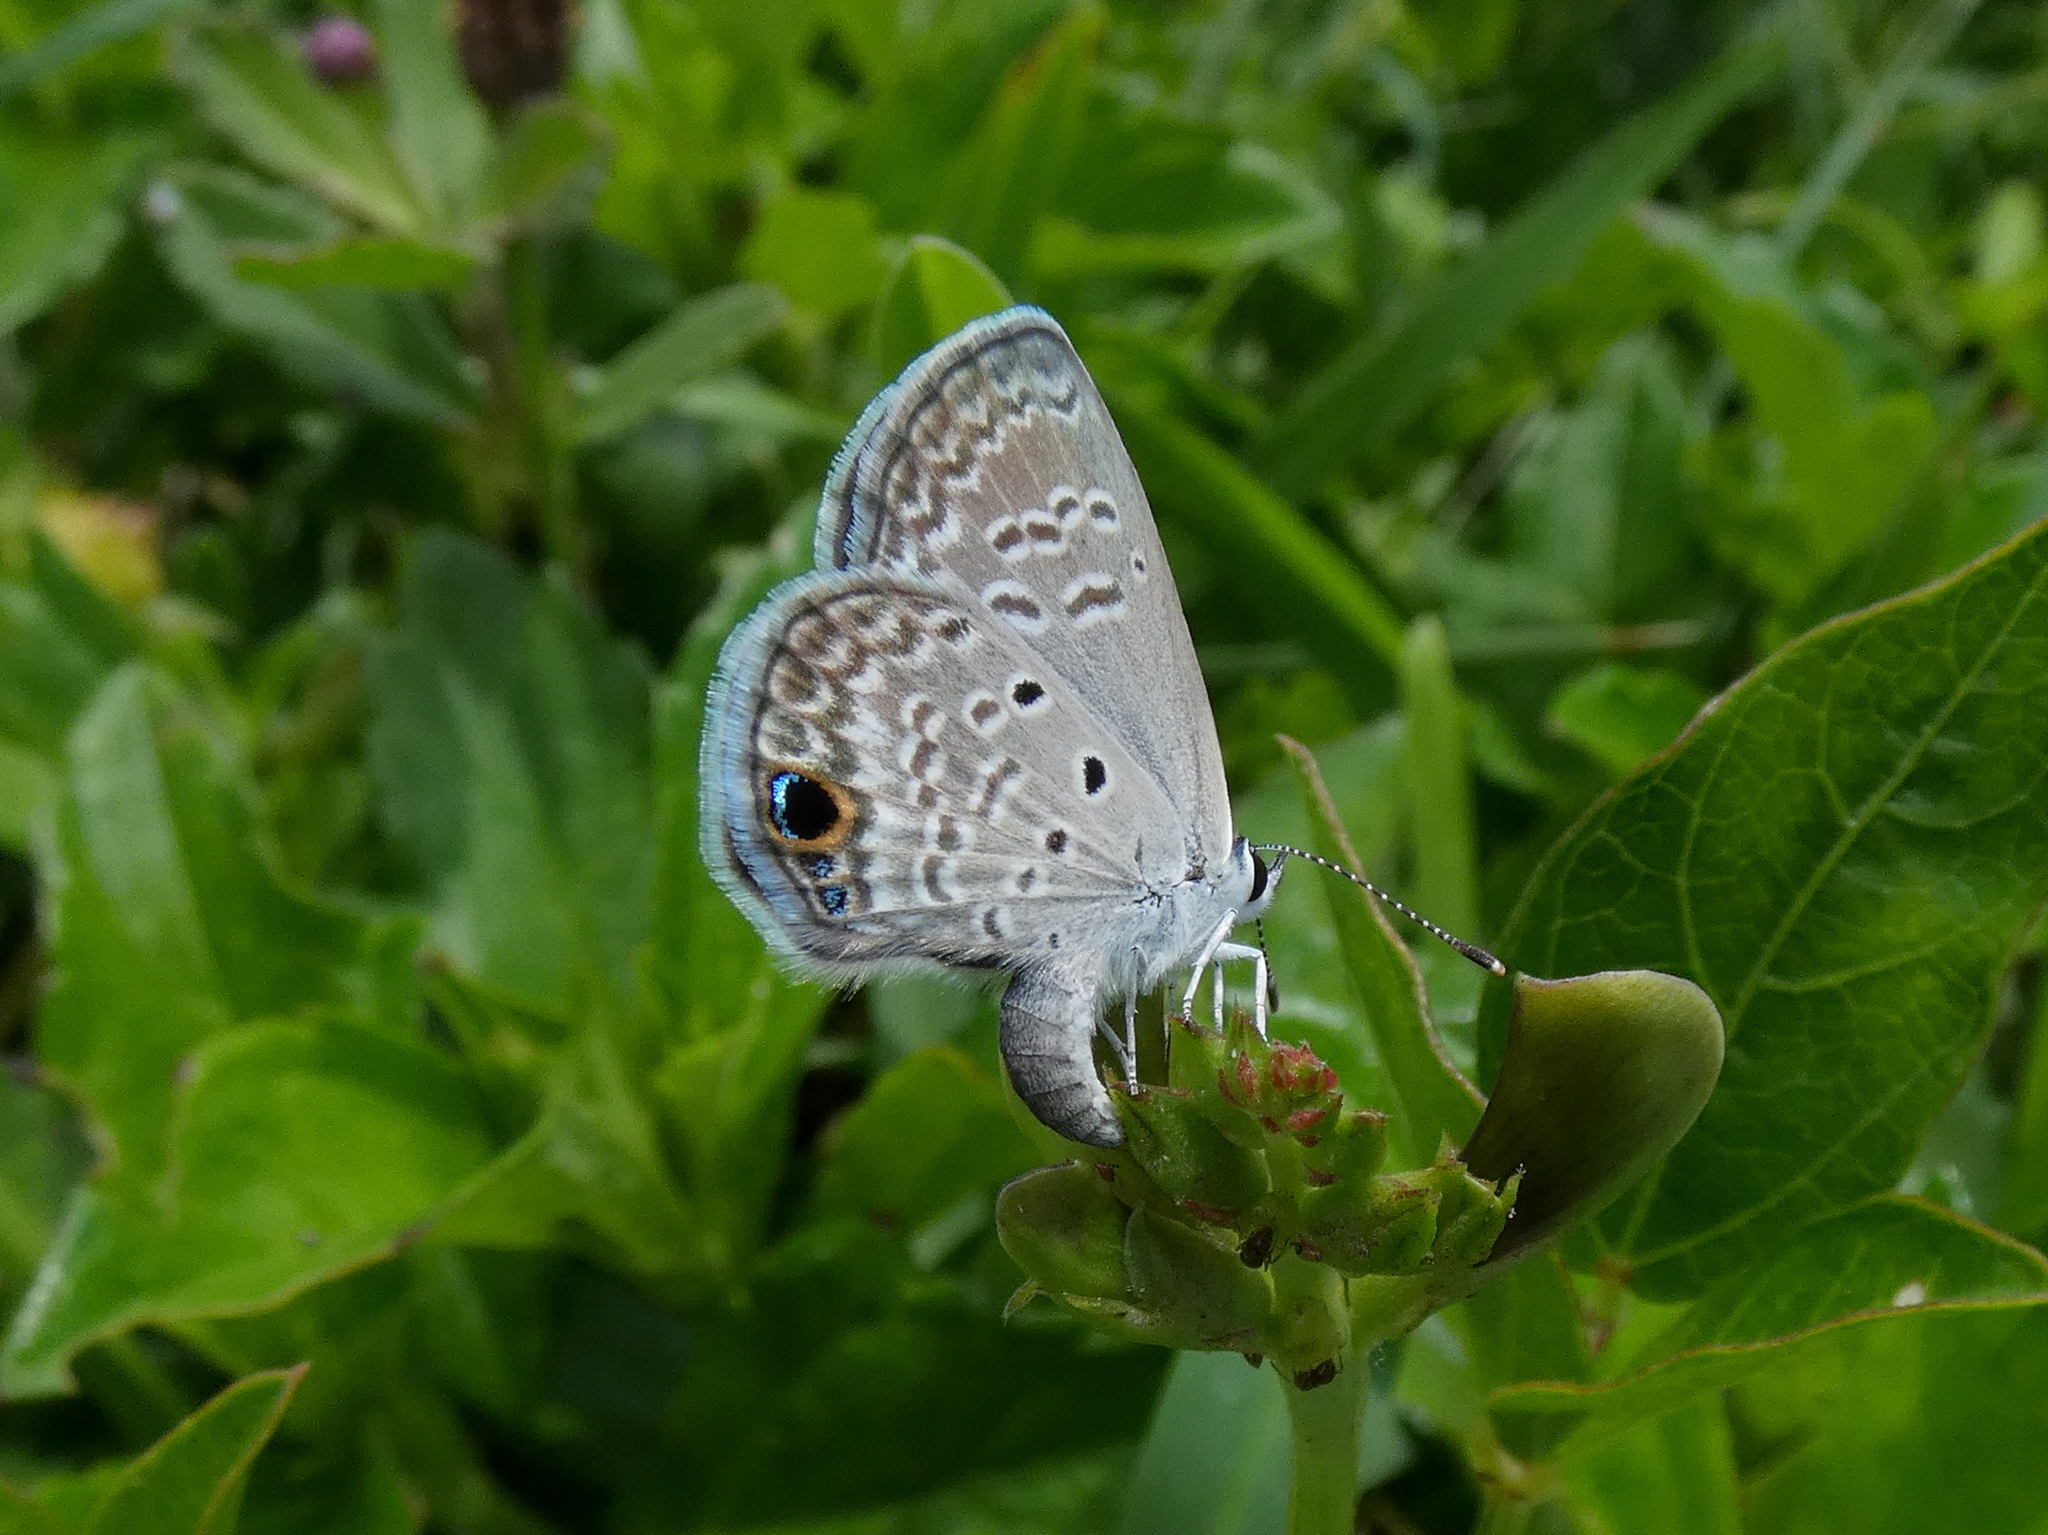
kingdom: Animalia
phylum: Arthropoda
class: Insecta
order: Lepidoptera
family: Lycaenidae
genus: Hemiargus
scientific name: Hemiargus ceraunus
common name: Ceraunus blue
